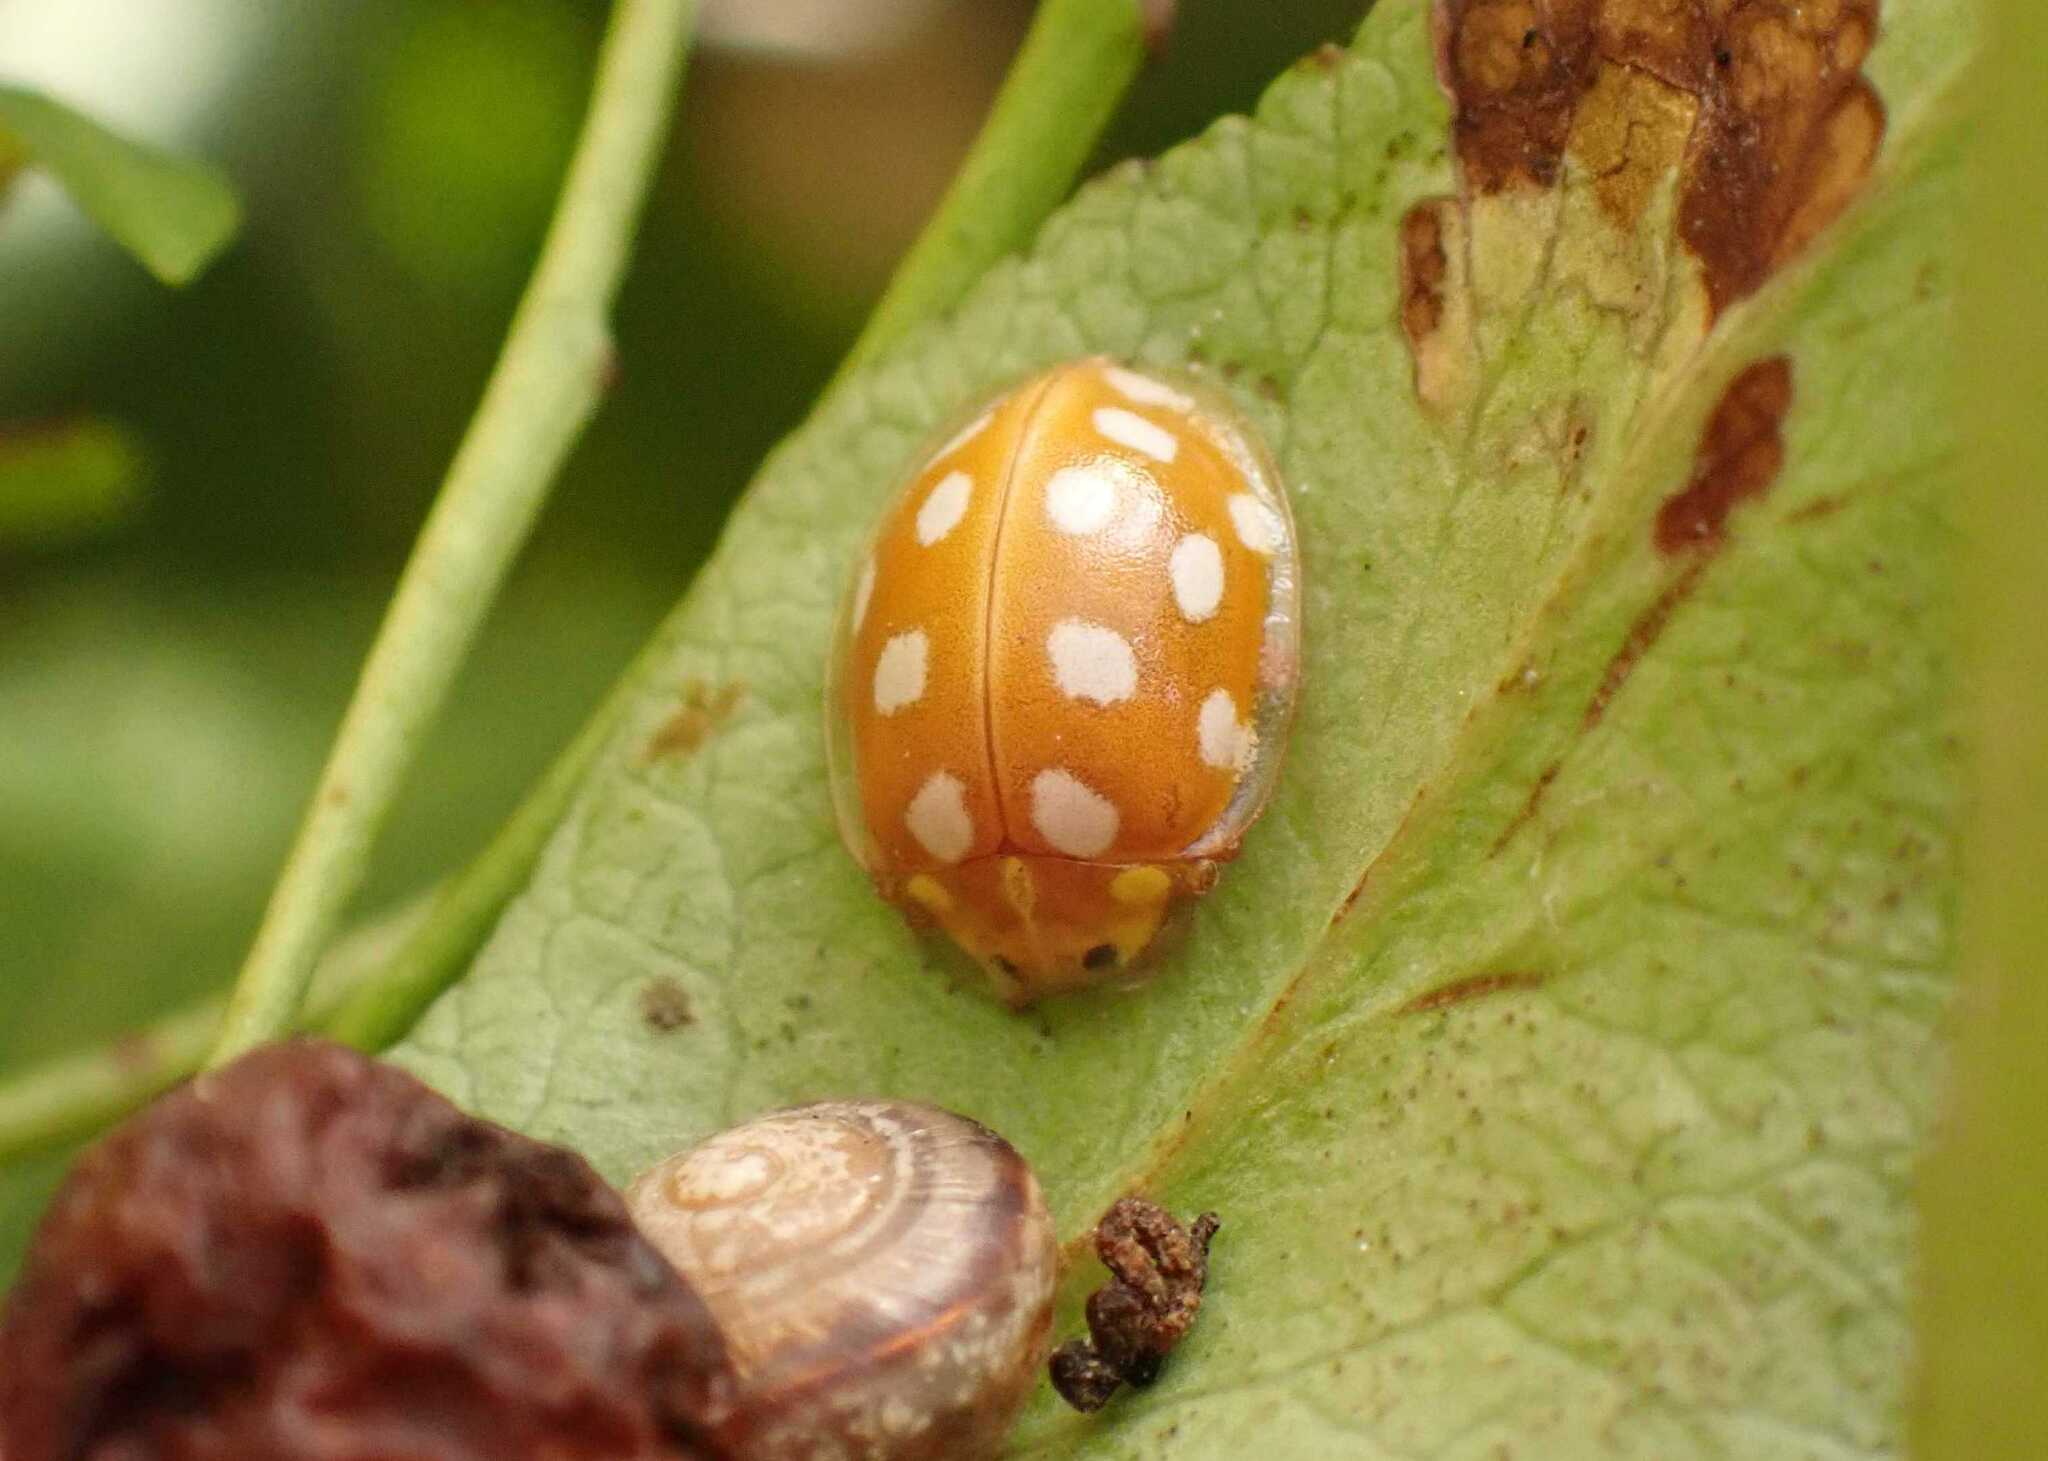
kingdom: Animalia
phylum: Arthropoda
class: Insecta
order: Coleoptera
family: Coccinellidae
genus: Halyzia
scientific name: Halyzia sedecimguttata
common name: Orange ladybird
